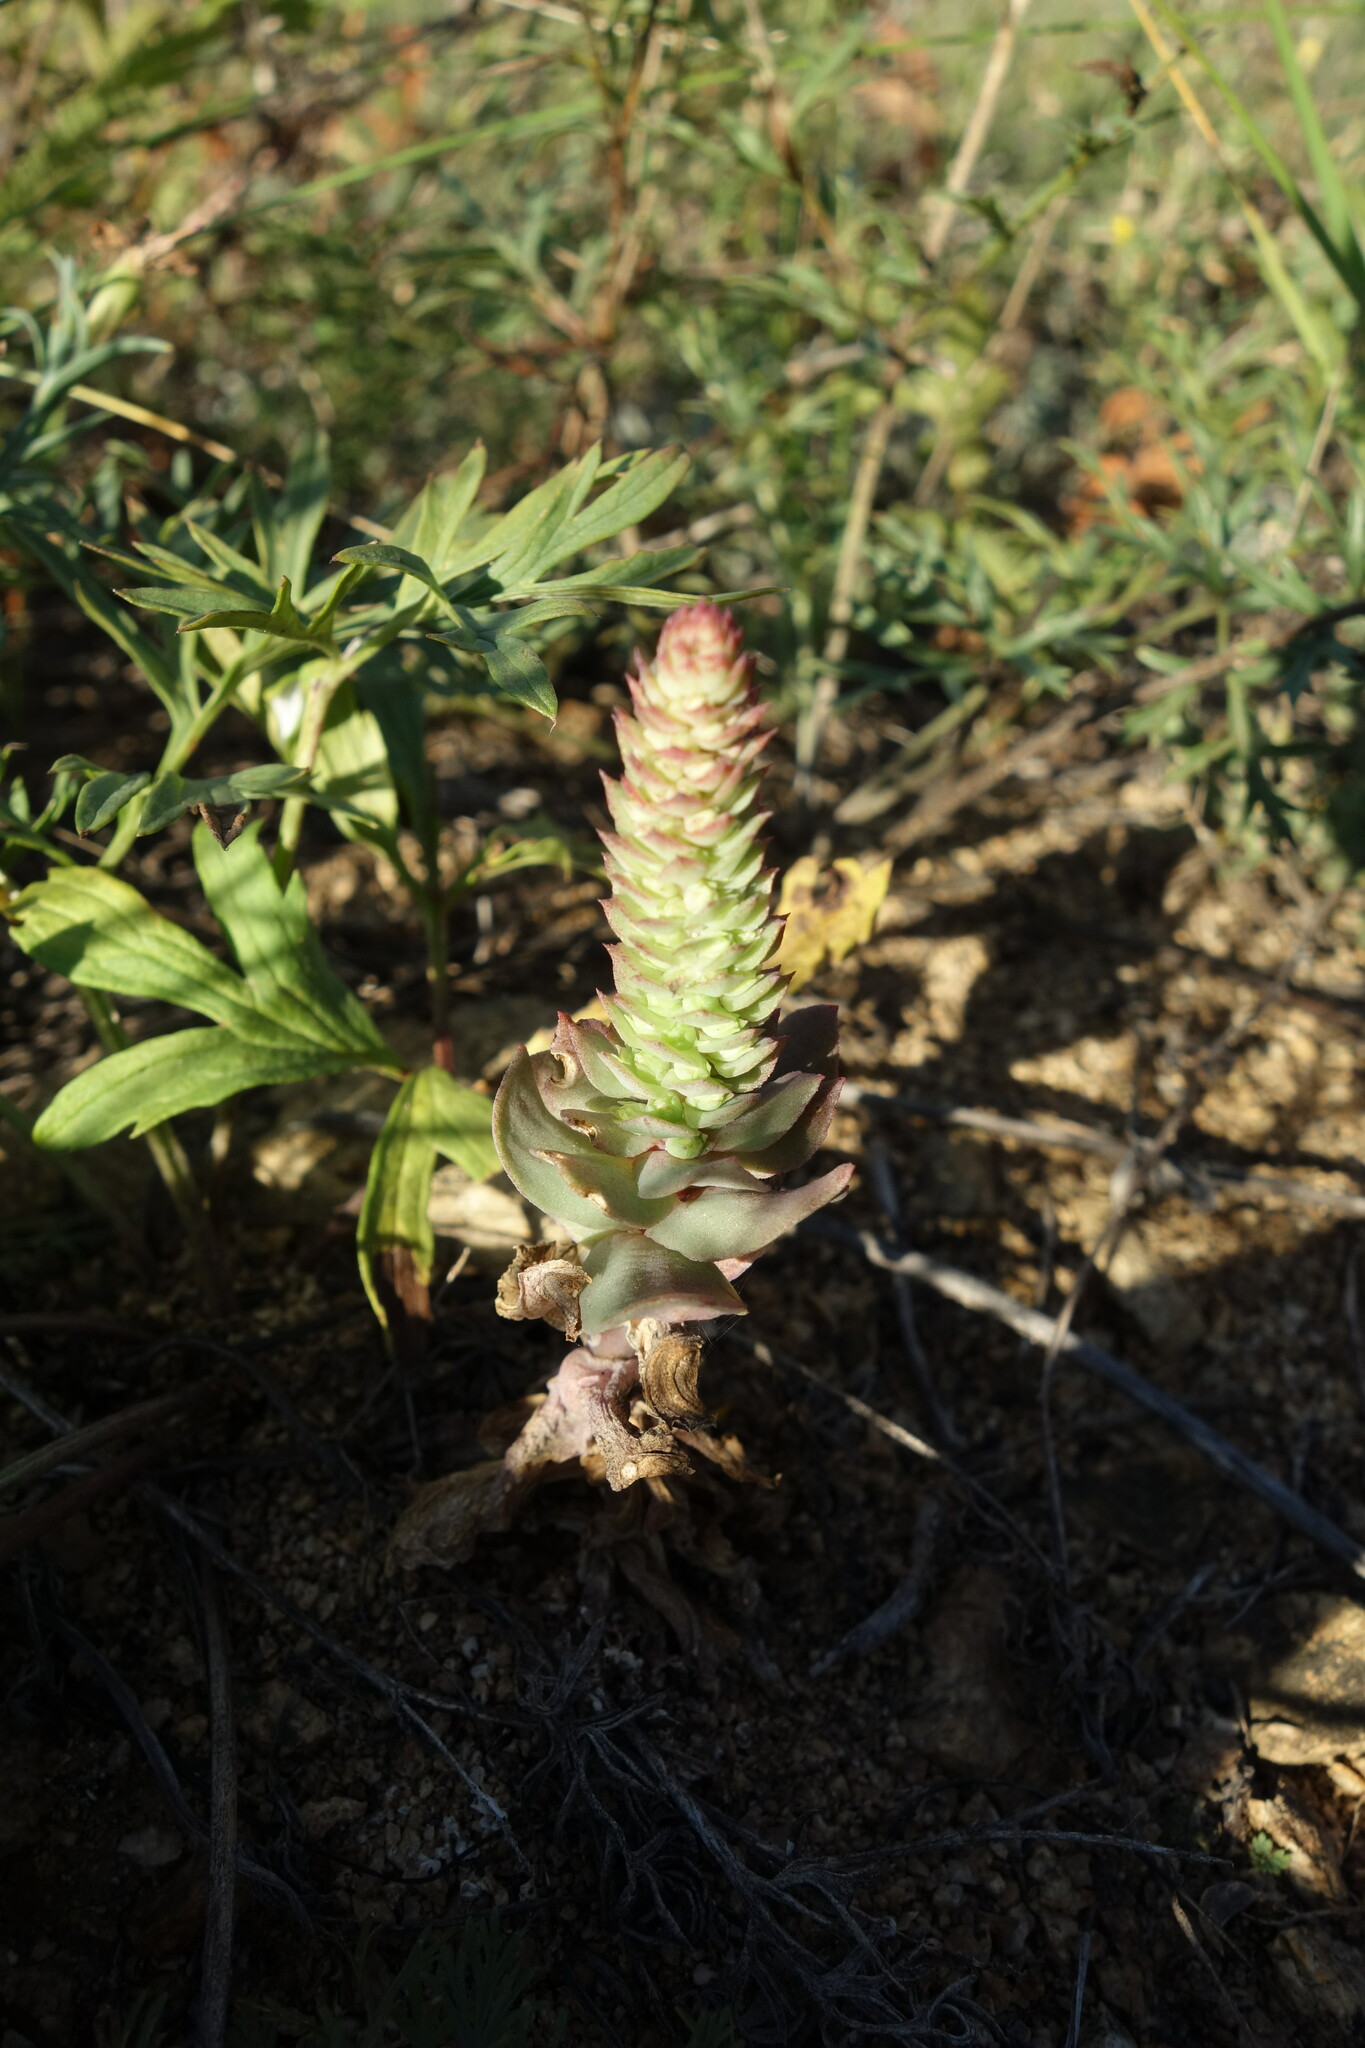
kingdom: Plantae
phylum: Tracheophyta
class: Magnoliopsida
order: Saxifragales
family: Crassulaceae
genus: Orostachys
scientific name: Orostachys malacophylla
